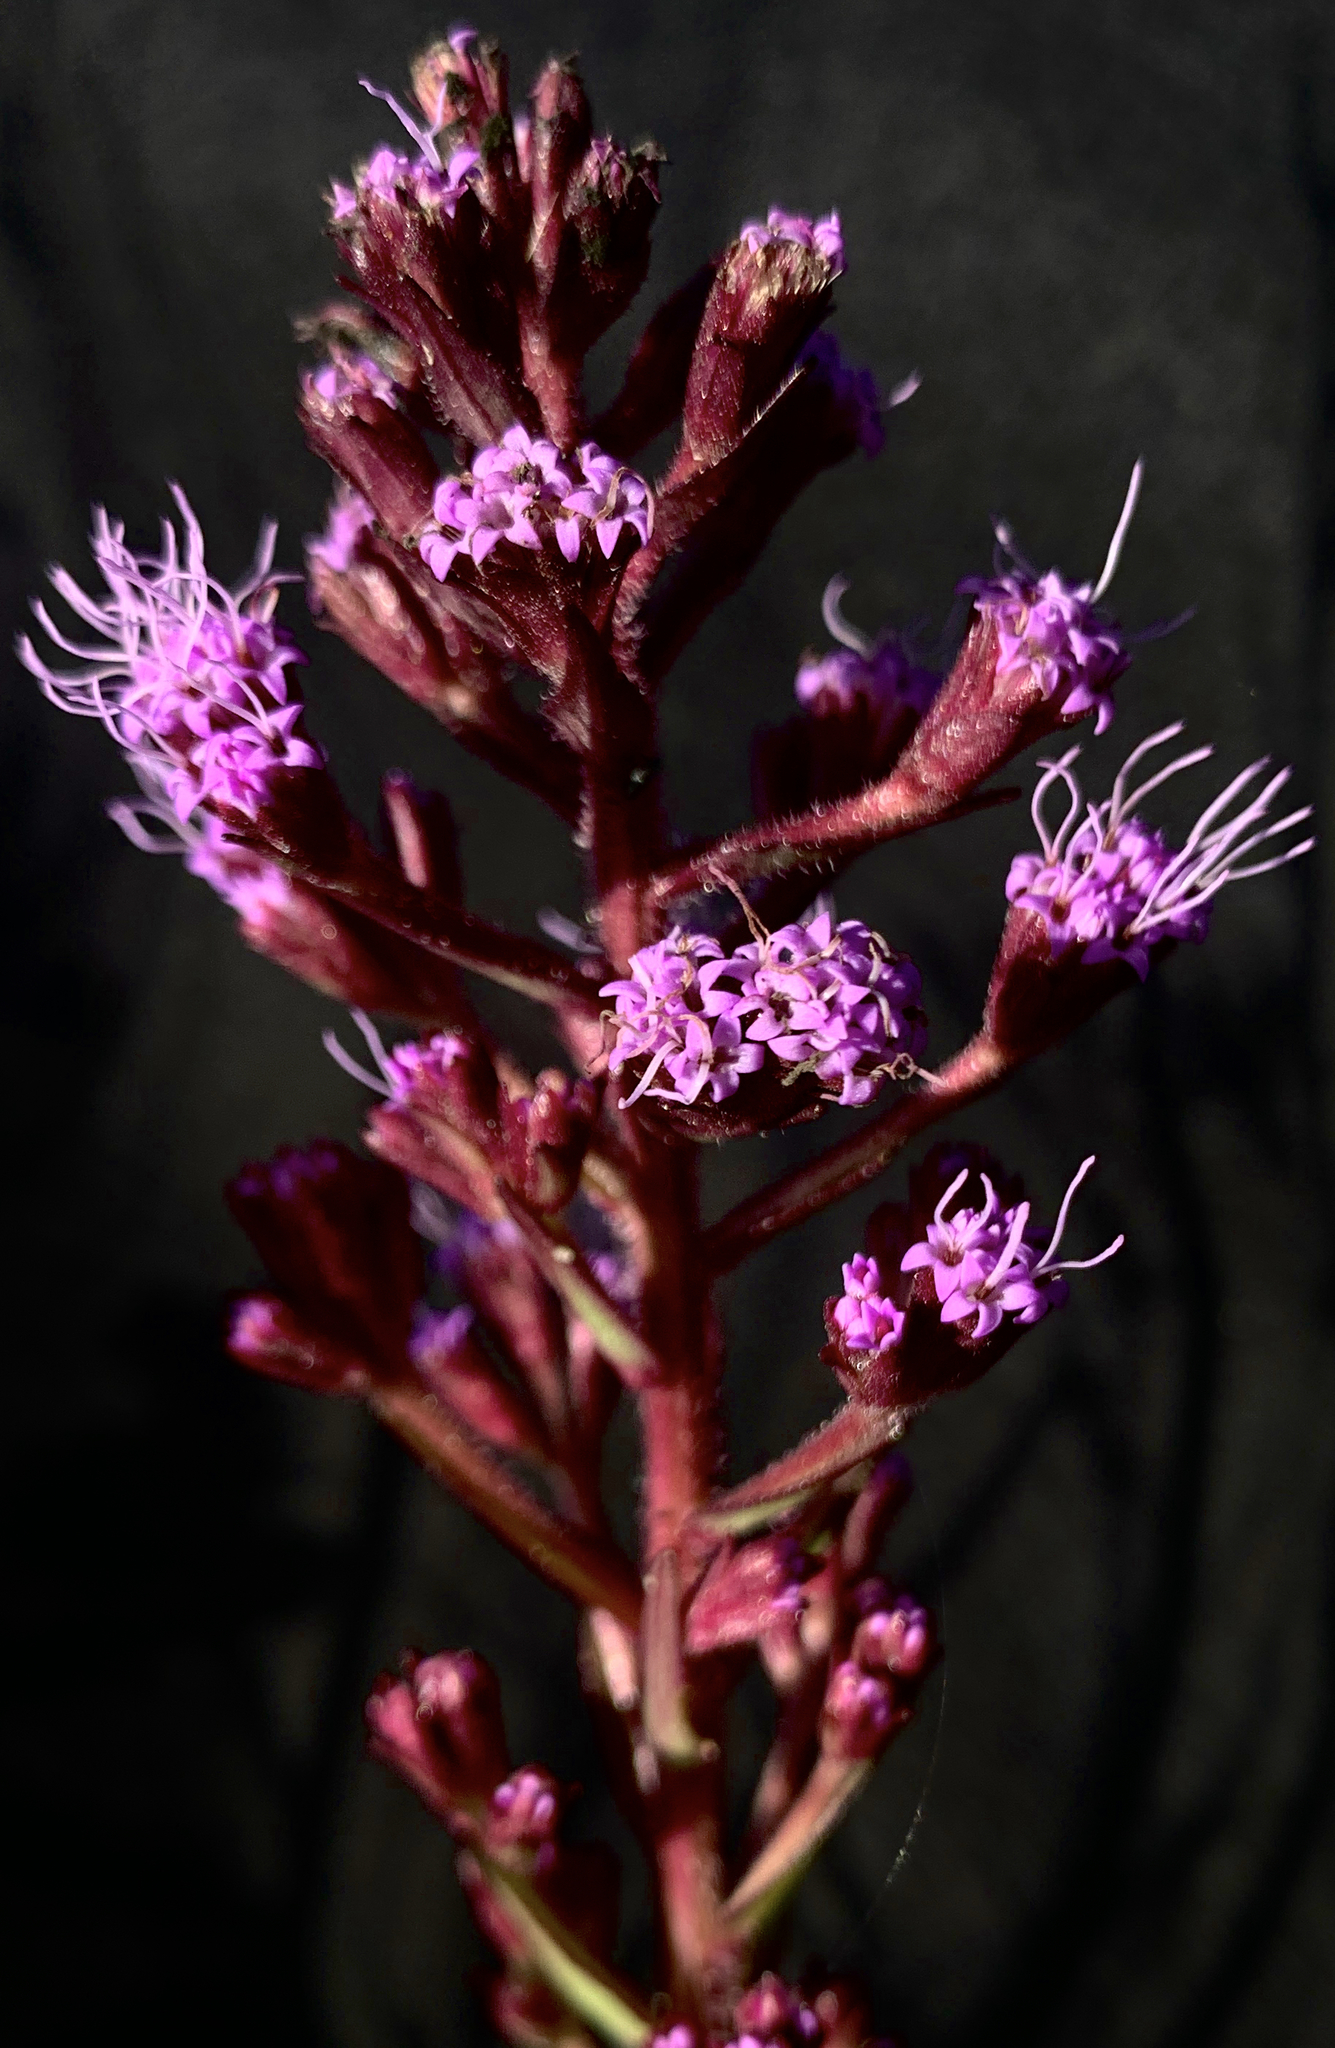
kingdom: Plantae
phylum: Tracheophyta
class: Magnoliopsida
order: Asterales
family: Asteraceae
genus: Carphephorus
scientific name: Carphephorus paniculatus
